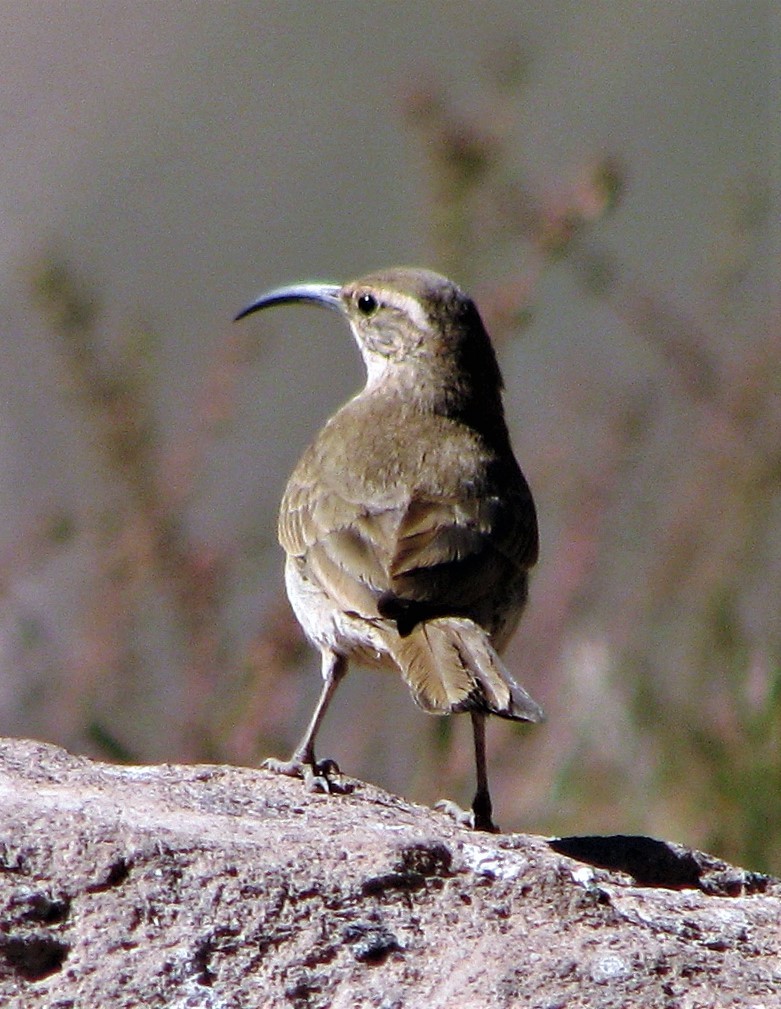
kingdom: Animalia
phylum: Chordata
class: Aves
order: Passeriformes
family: Furnariidae
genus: Upucerthia
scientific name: Upucerthia dumetaria
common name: Scale-throated earthcreeper
